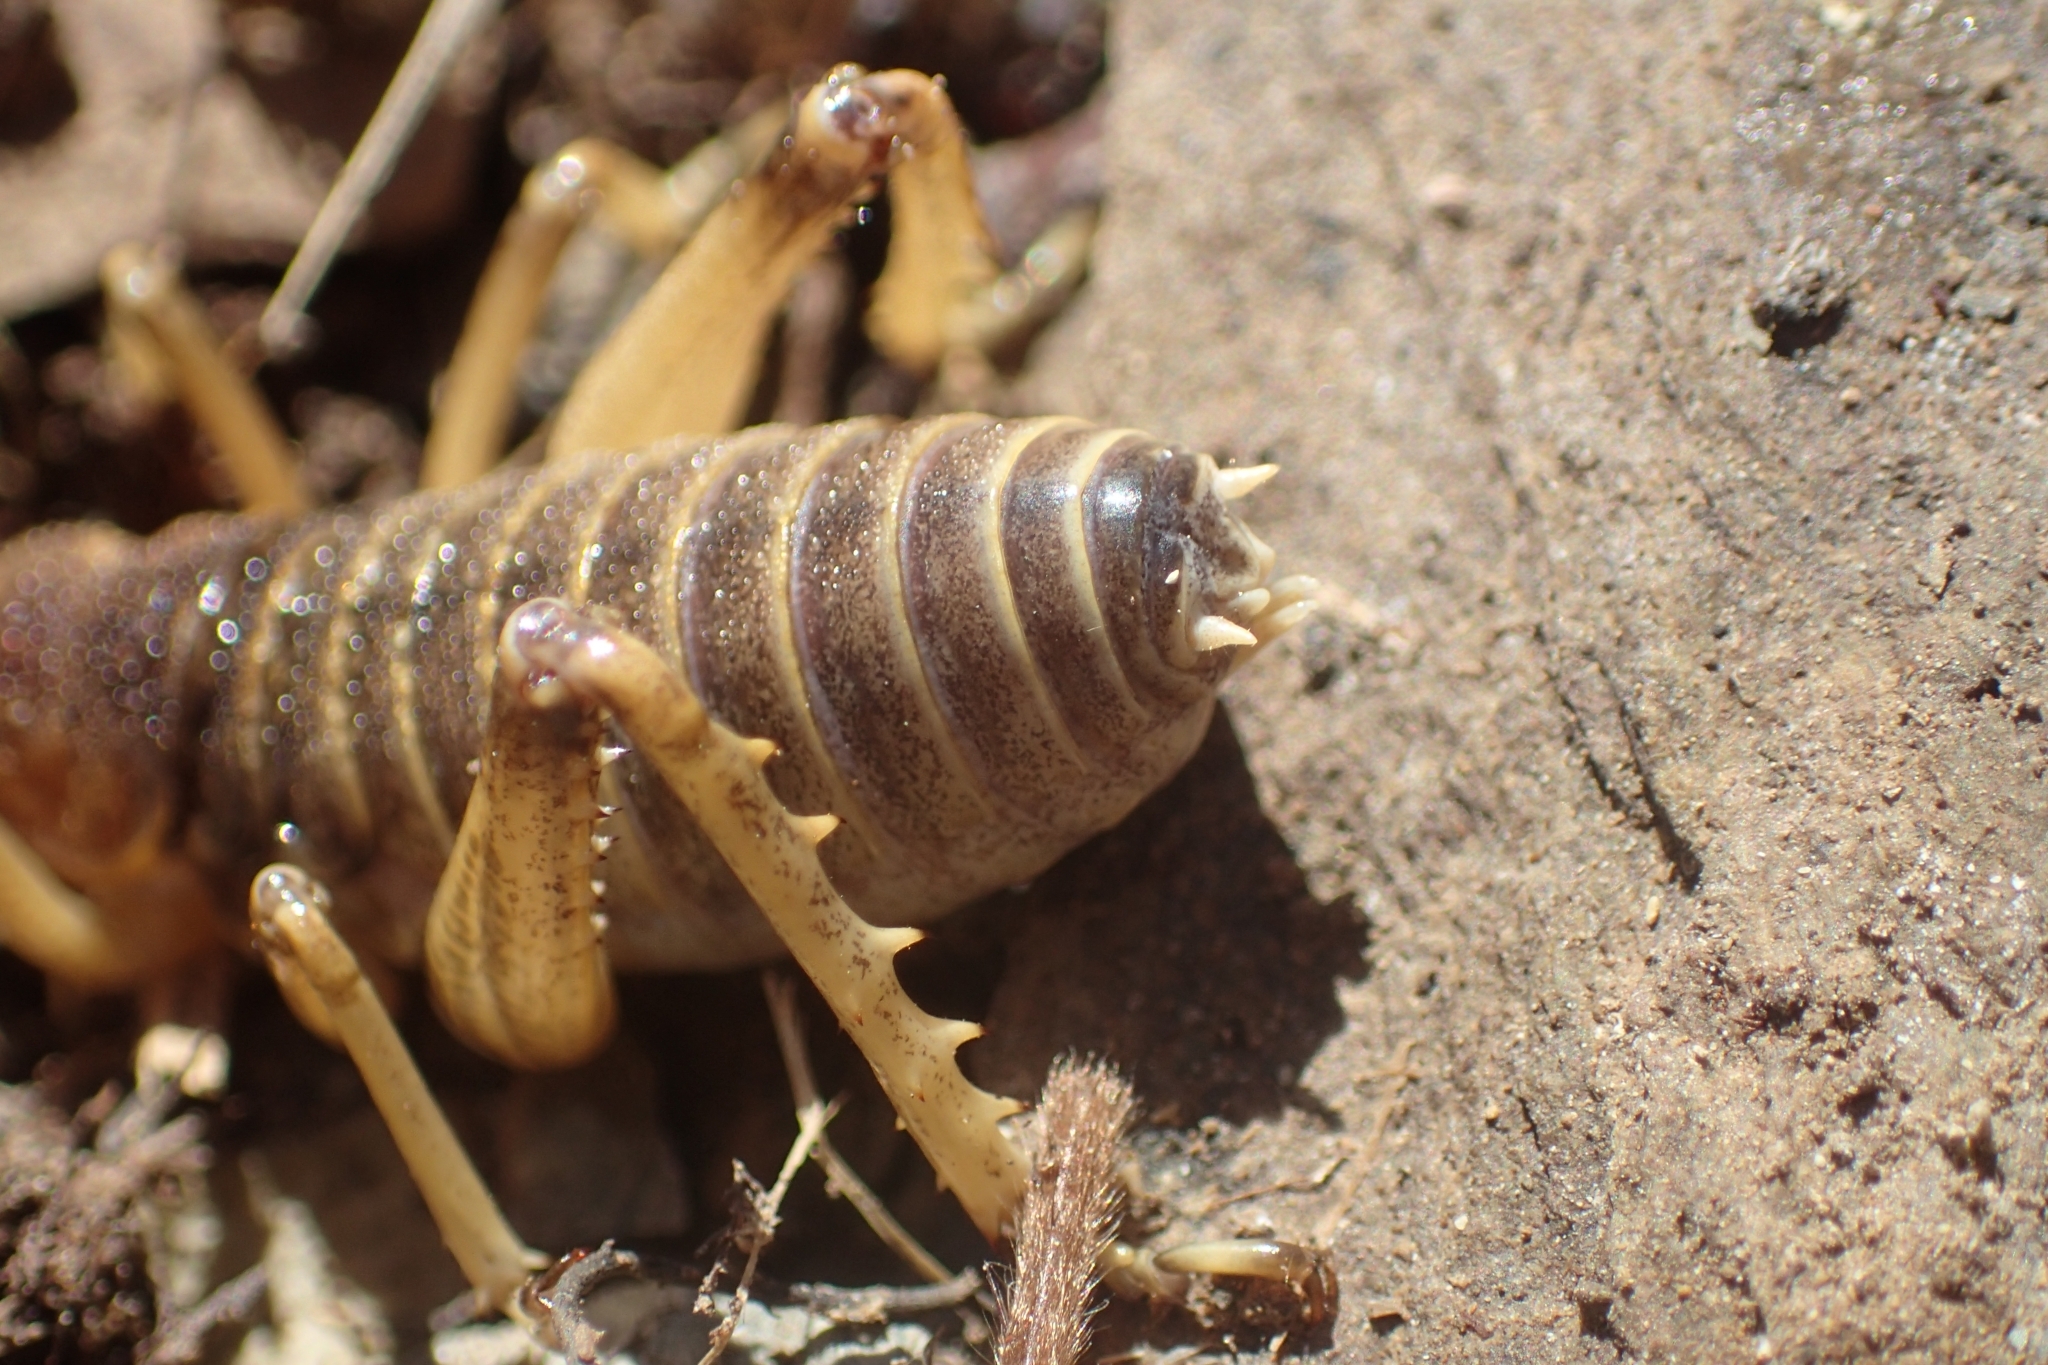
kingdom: Animalia
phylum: Arthropoda
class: Insecta
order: Orthoptera
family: Anostostomatidae
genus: Deinacrida
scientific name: Deinacrida connectens
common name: Scree weta
